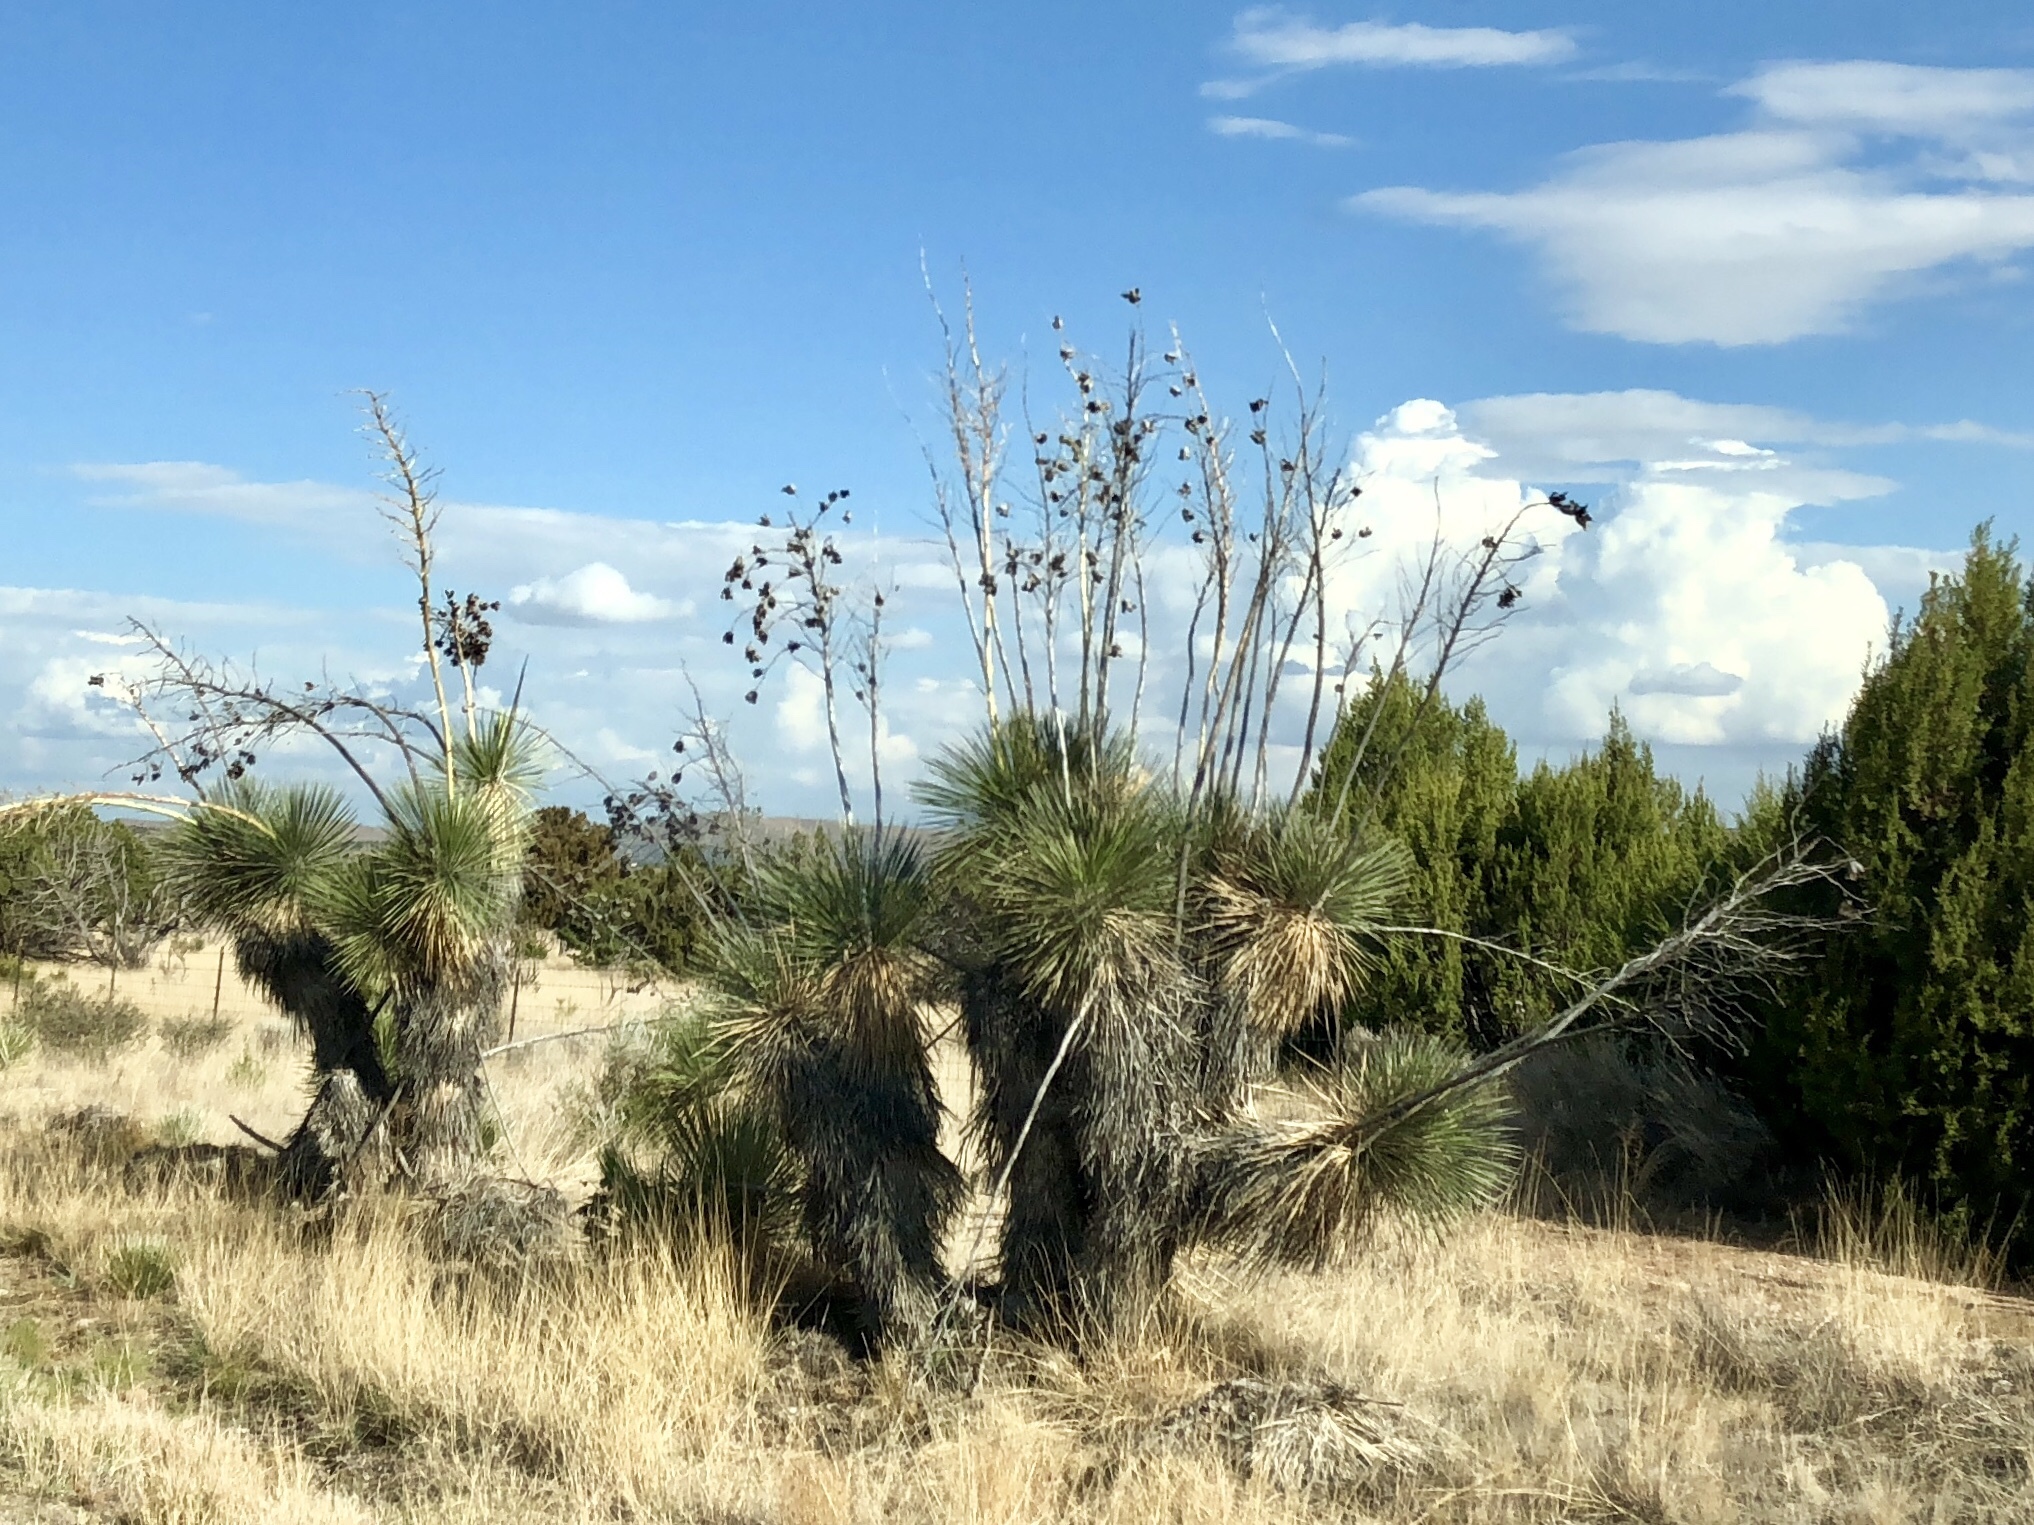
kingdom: Plantae
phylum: Tracheophyta
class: Liliopsida
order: Asparagales
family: Asparagaceae
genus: Yucca
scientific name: Yucca elata
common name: Palmella
